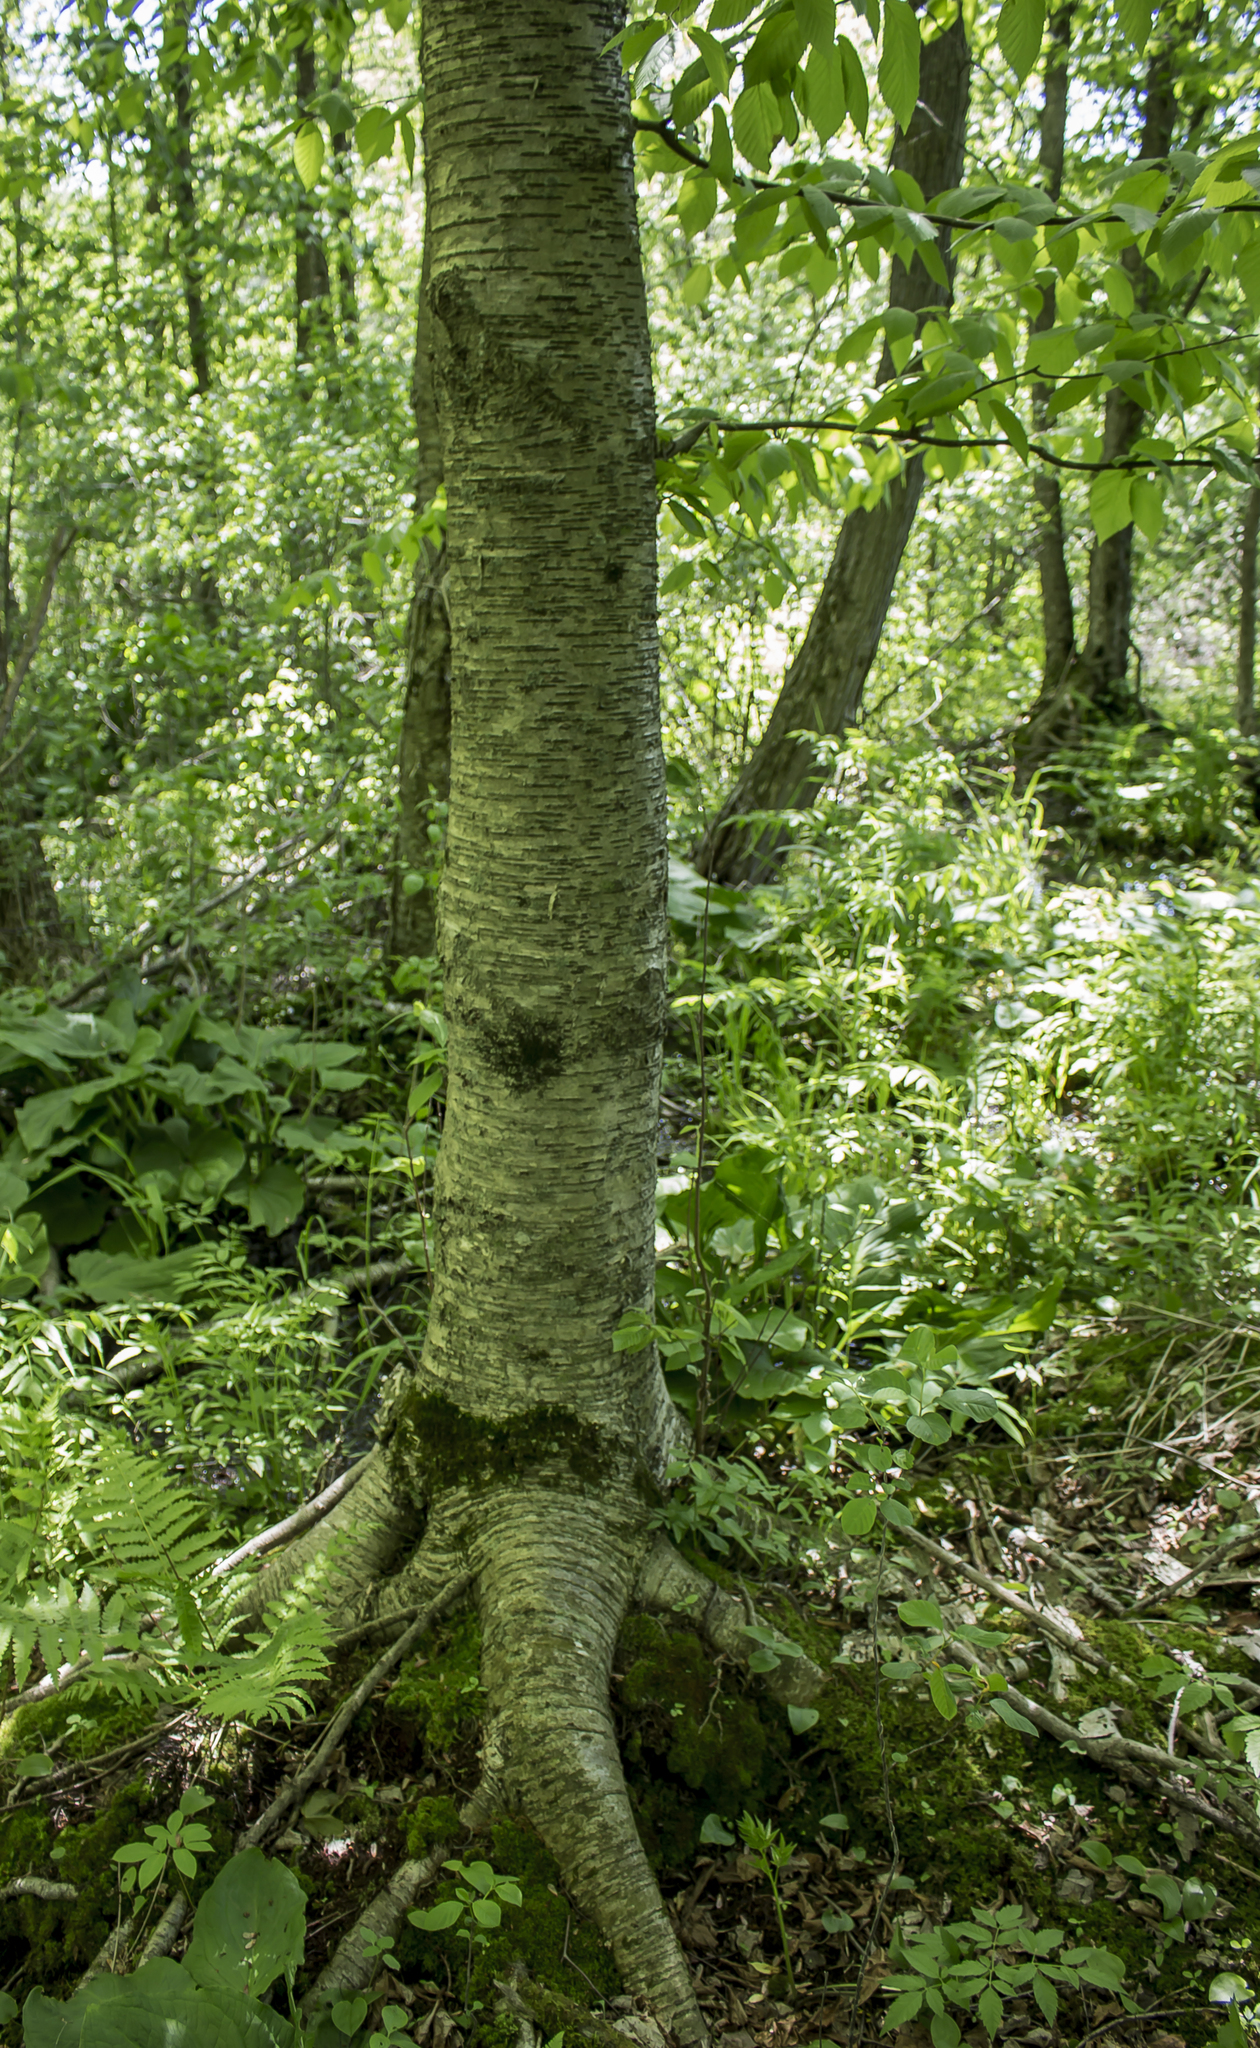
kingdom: Plantae
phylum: Tracheophyta
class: Magnoliopsida
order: Fagales
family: Betulaceae
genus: Betula
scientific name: Betula alleghaniensis
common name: Yellow birch
